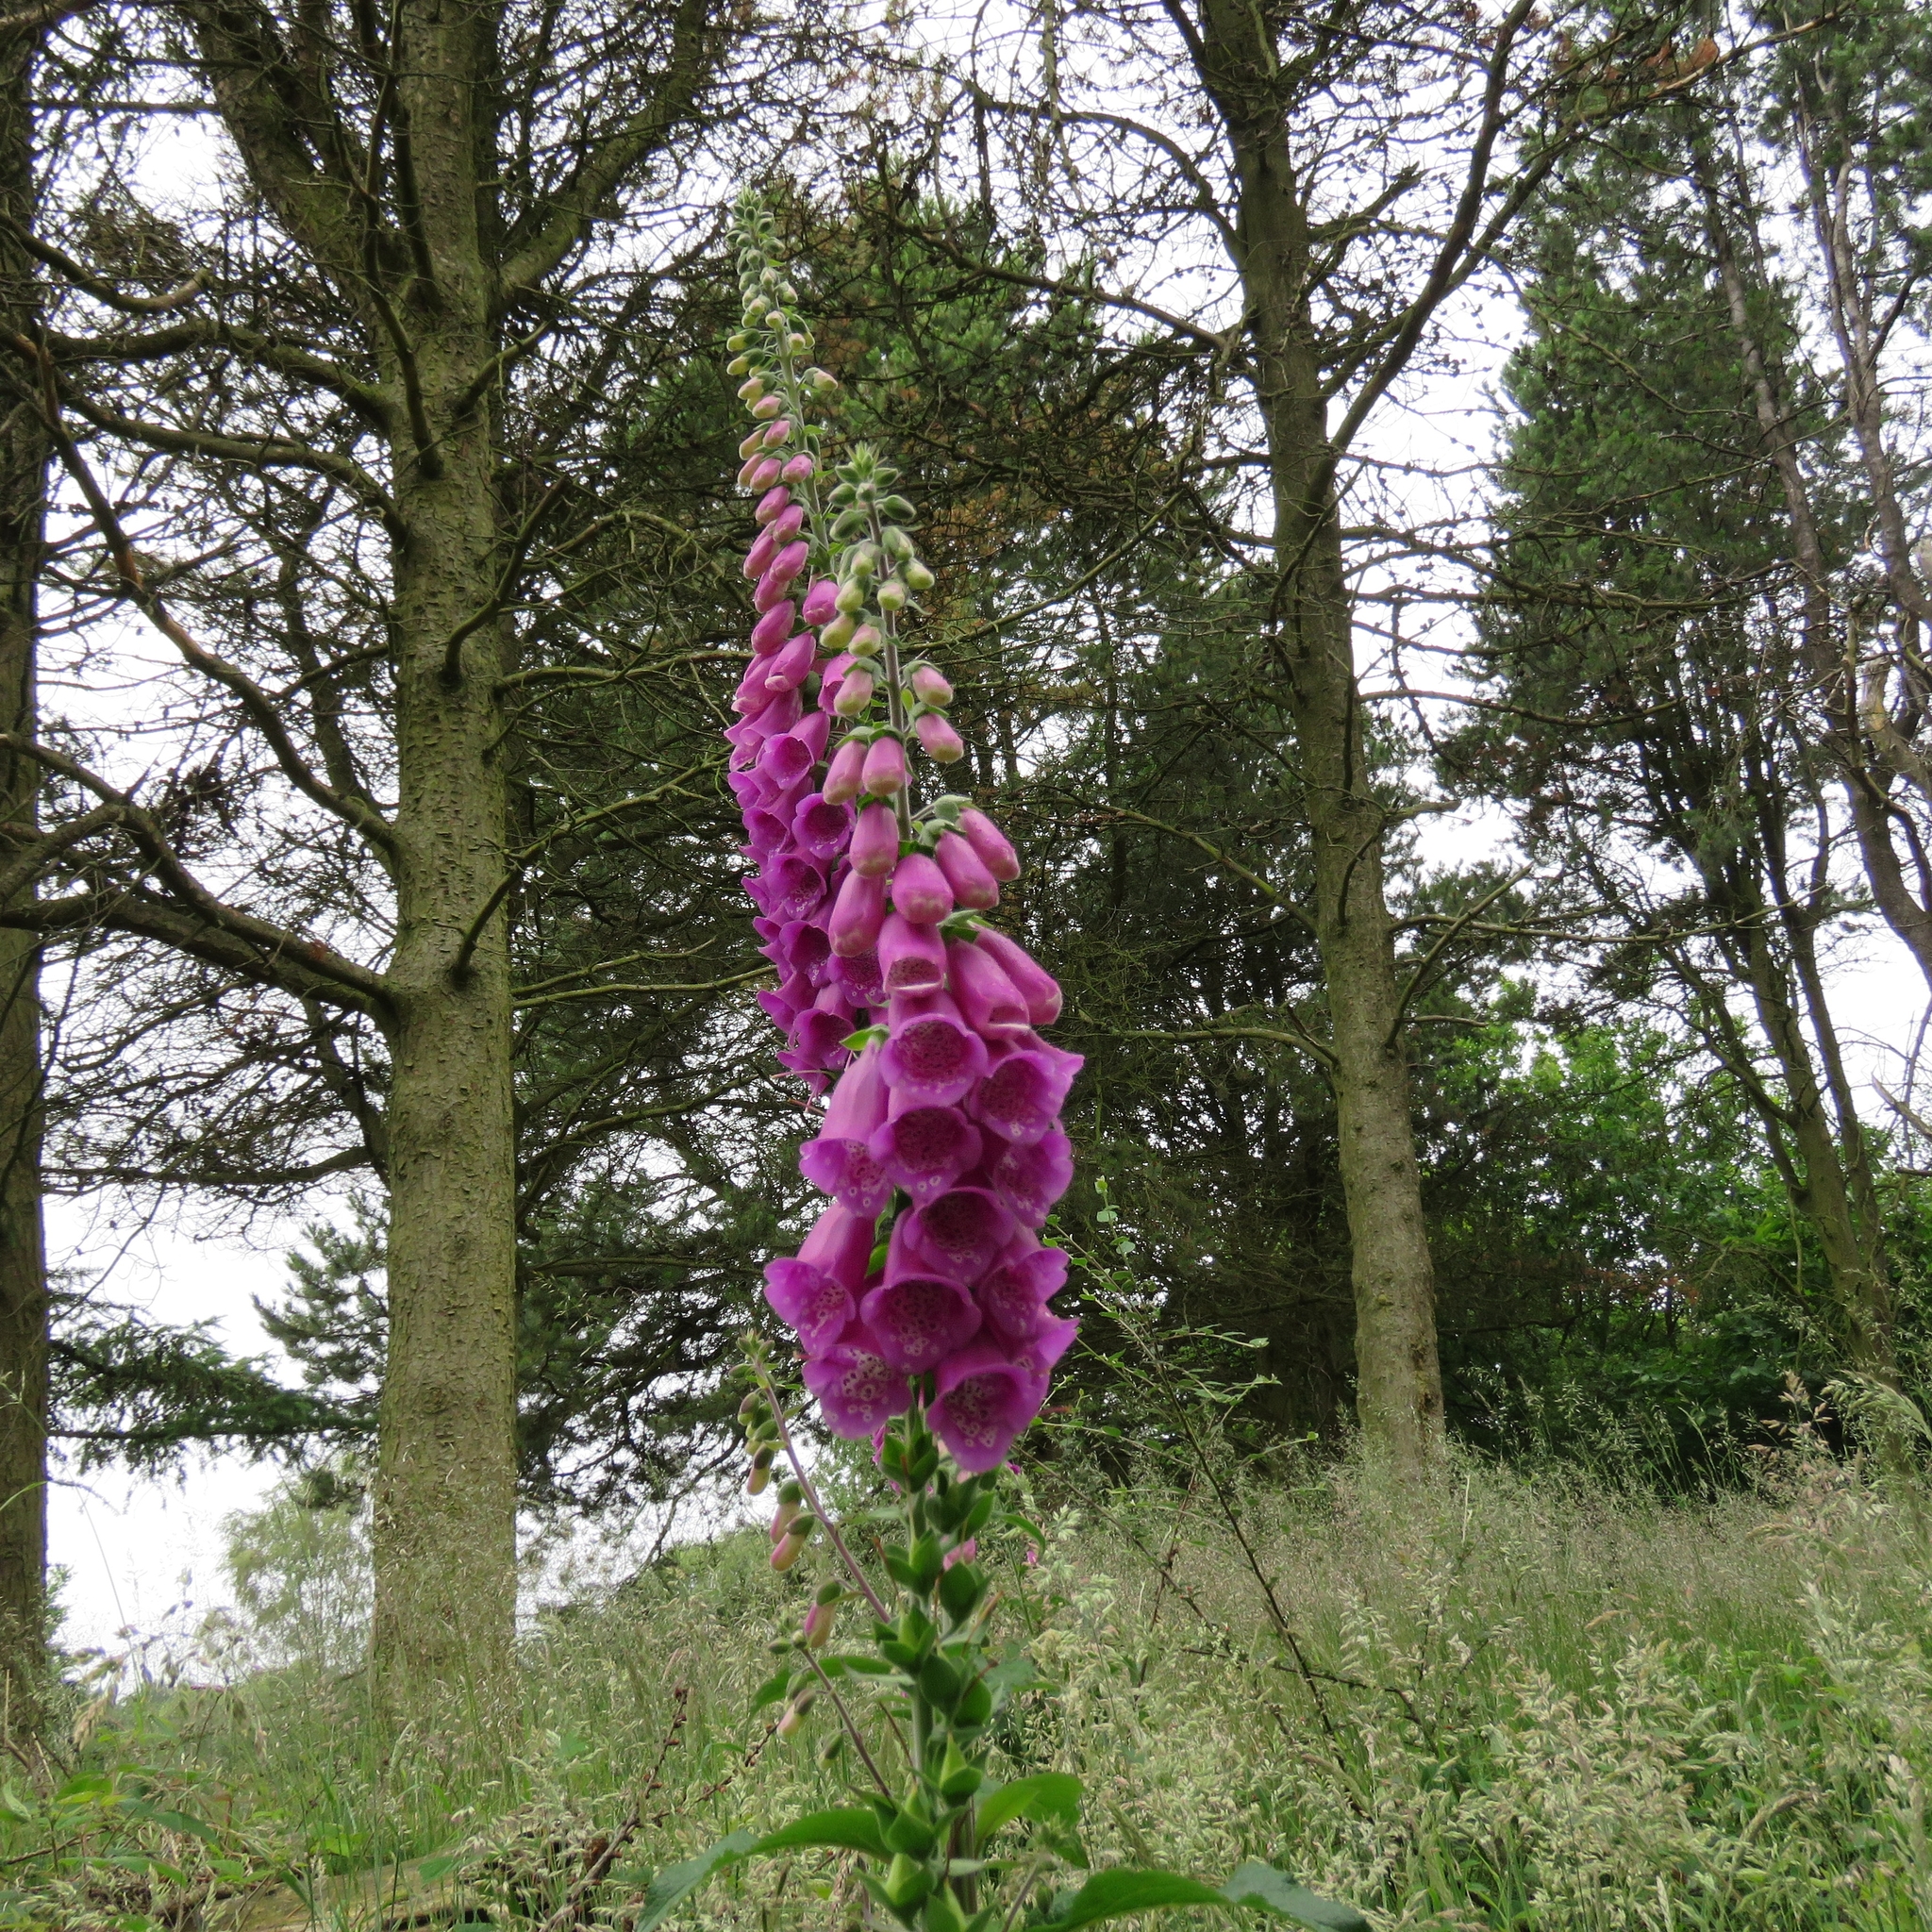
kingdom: Plantae
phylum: Tracheophyta
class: Magnoliopsida
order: Lamiales
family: Plantaginaceae
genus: Digitalis
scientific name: Digitalis purpurea
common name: Foxglove
